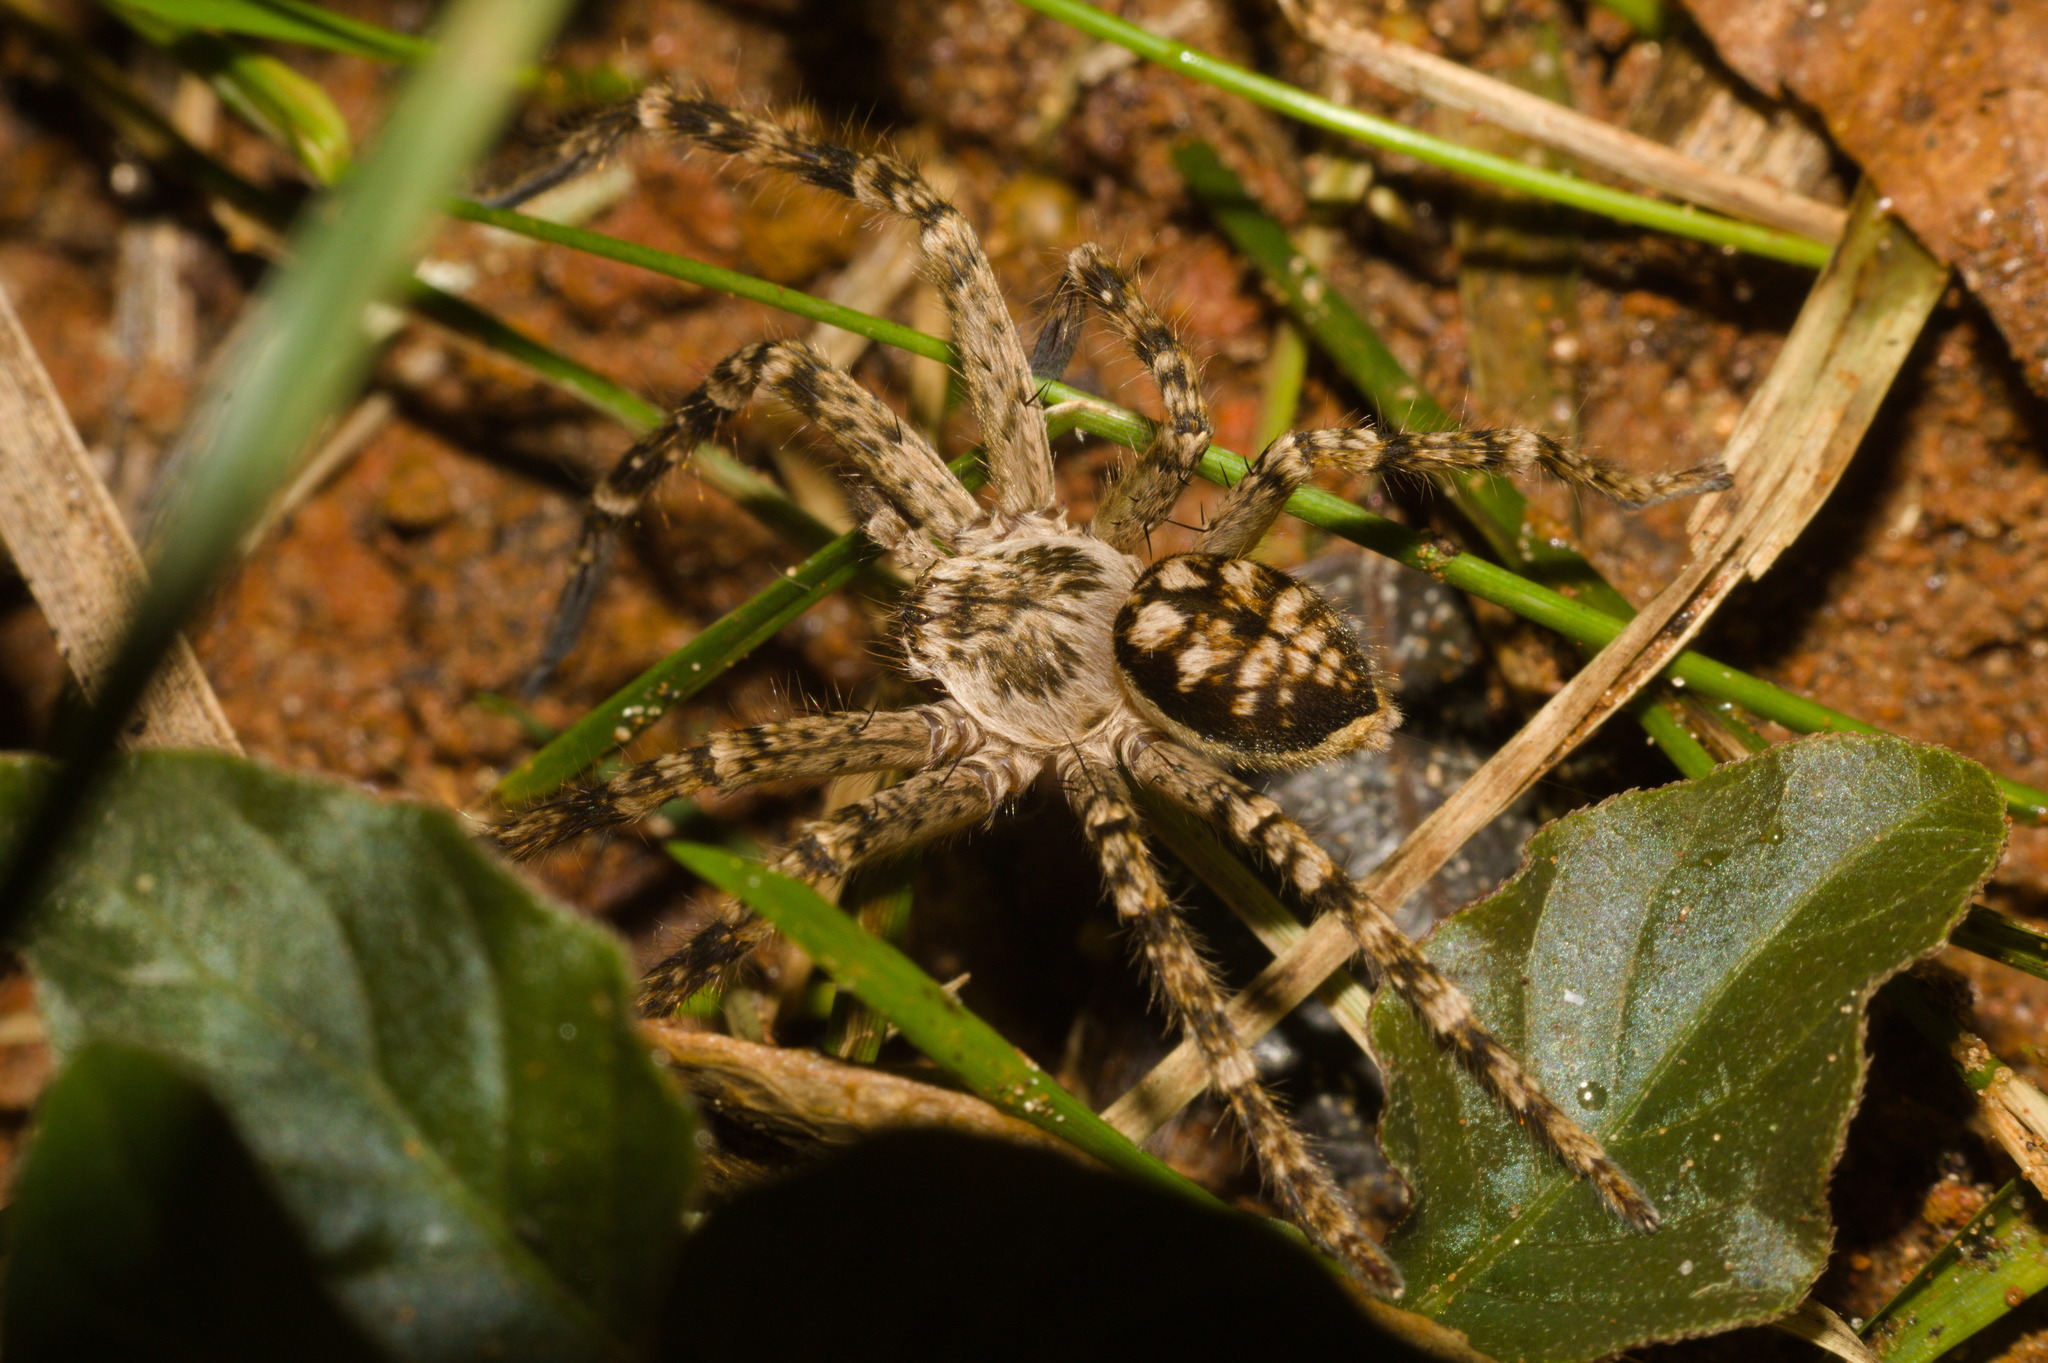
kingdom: Animalia
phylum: Arthropoda
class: Arachnida
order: Araneae
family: Sparassidae
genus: Polybetes
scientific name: Polybetes rapidus
